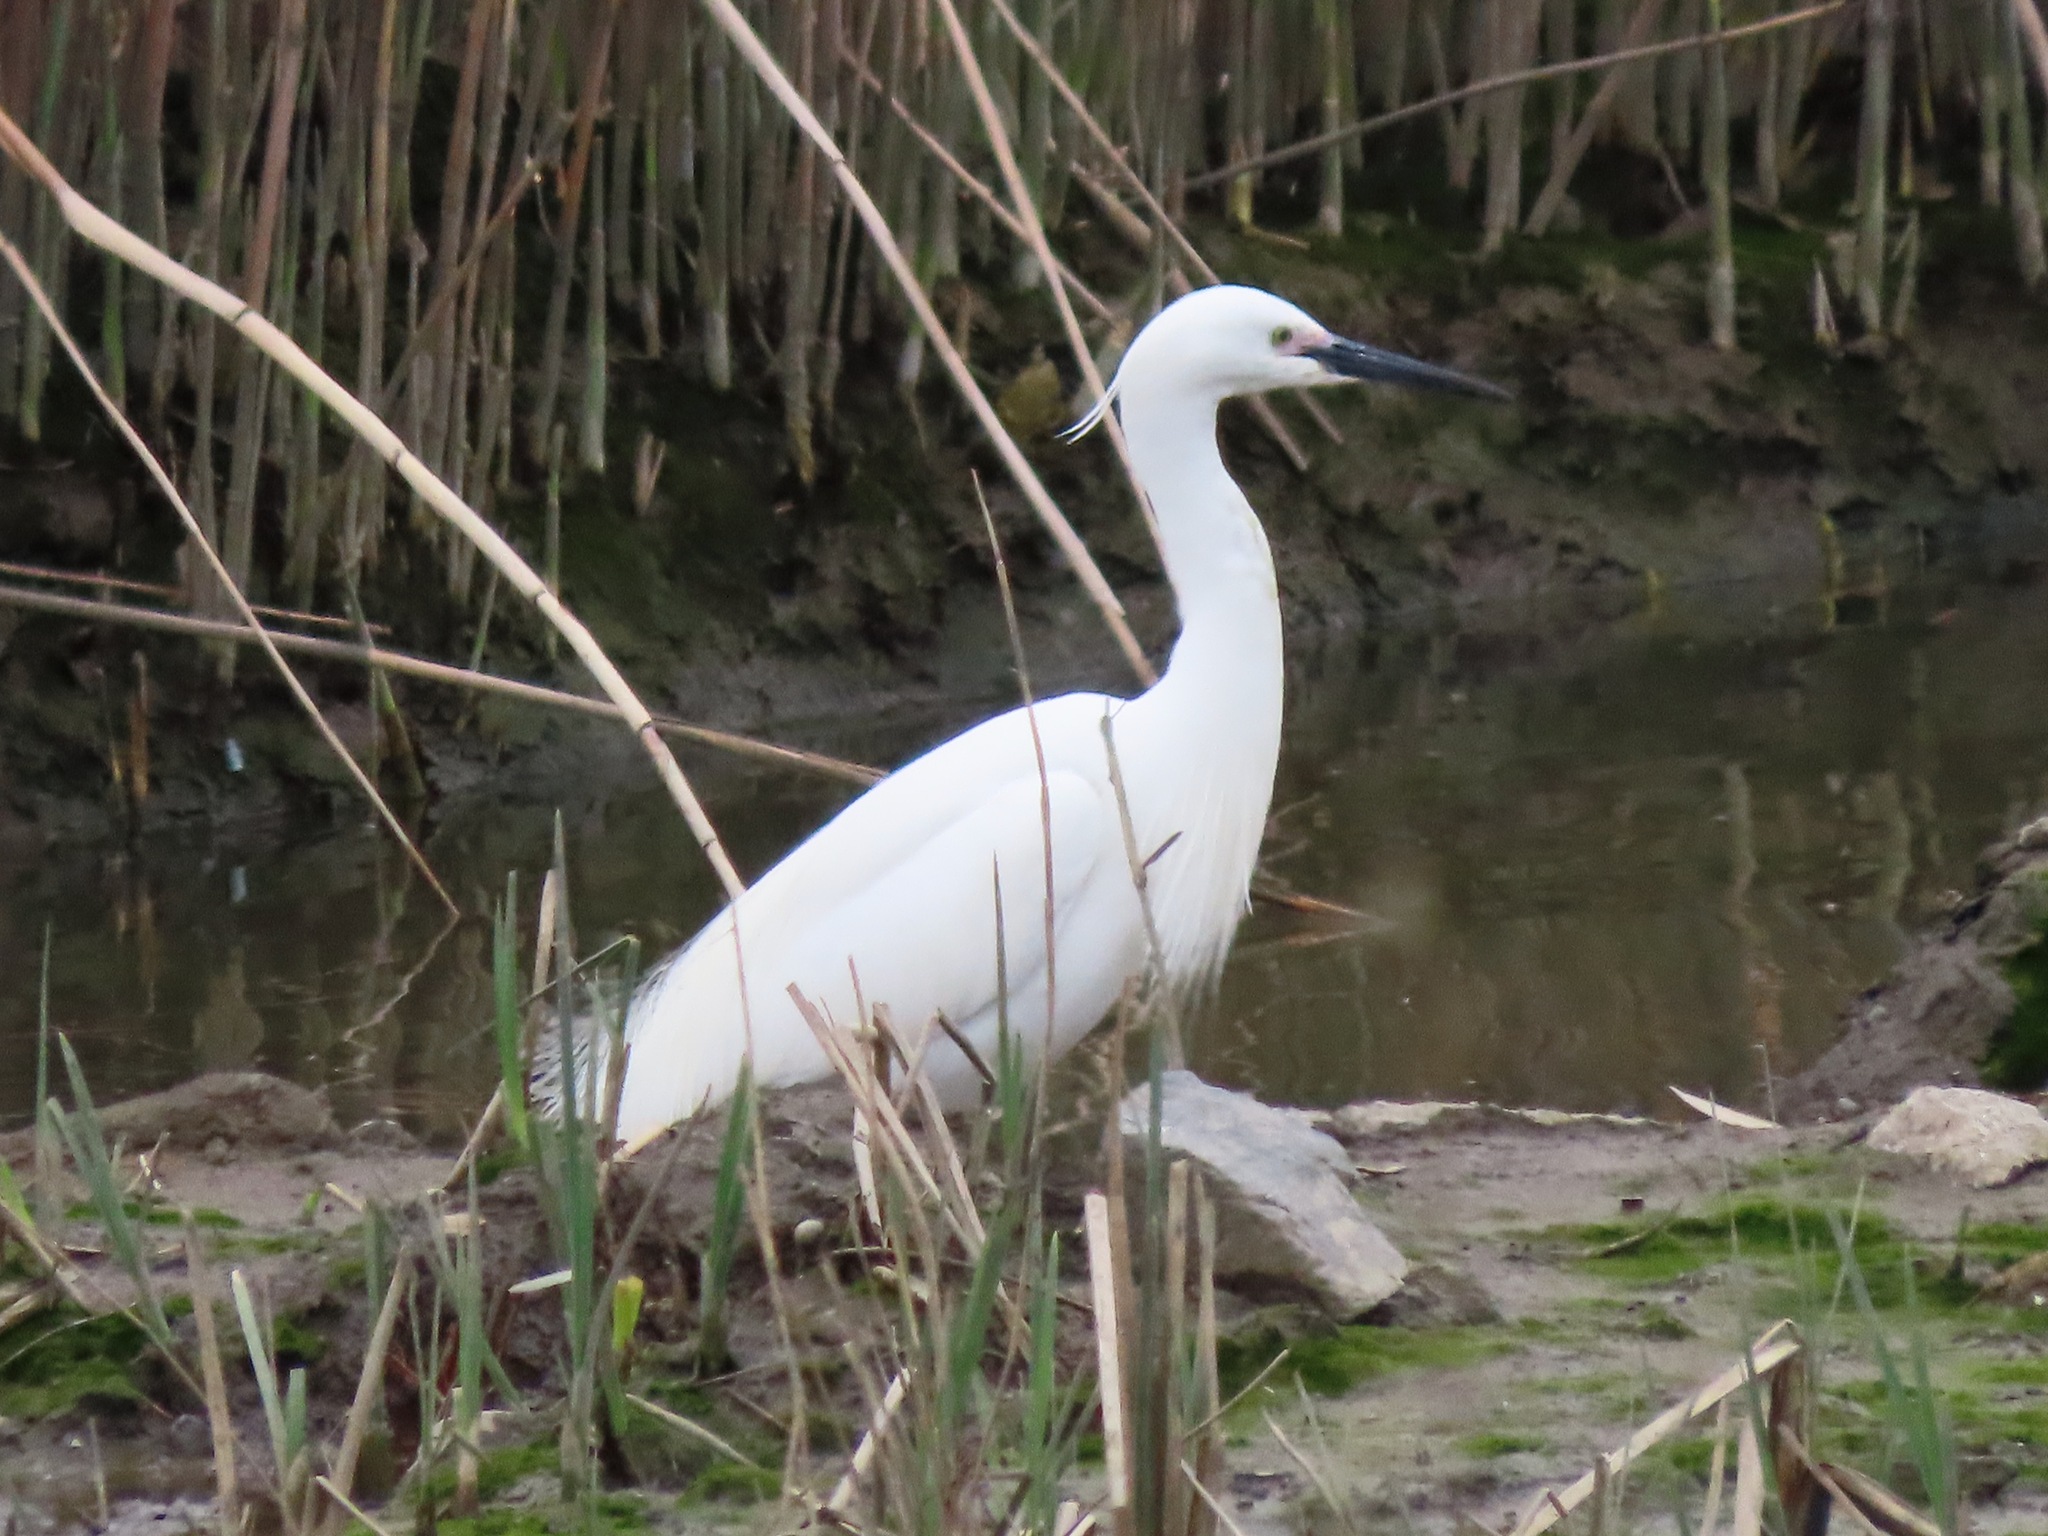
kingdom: Animalia
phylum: Chordata
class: Aves
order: Pelecaniformes
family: Ardeidae
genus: Egretta
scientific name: Egretta garzetta
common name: Little egret
